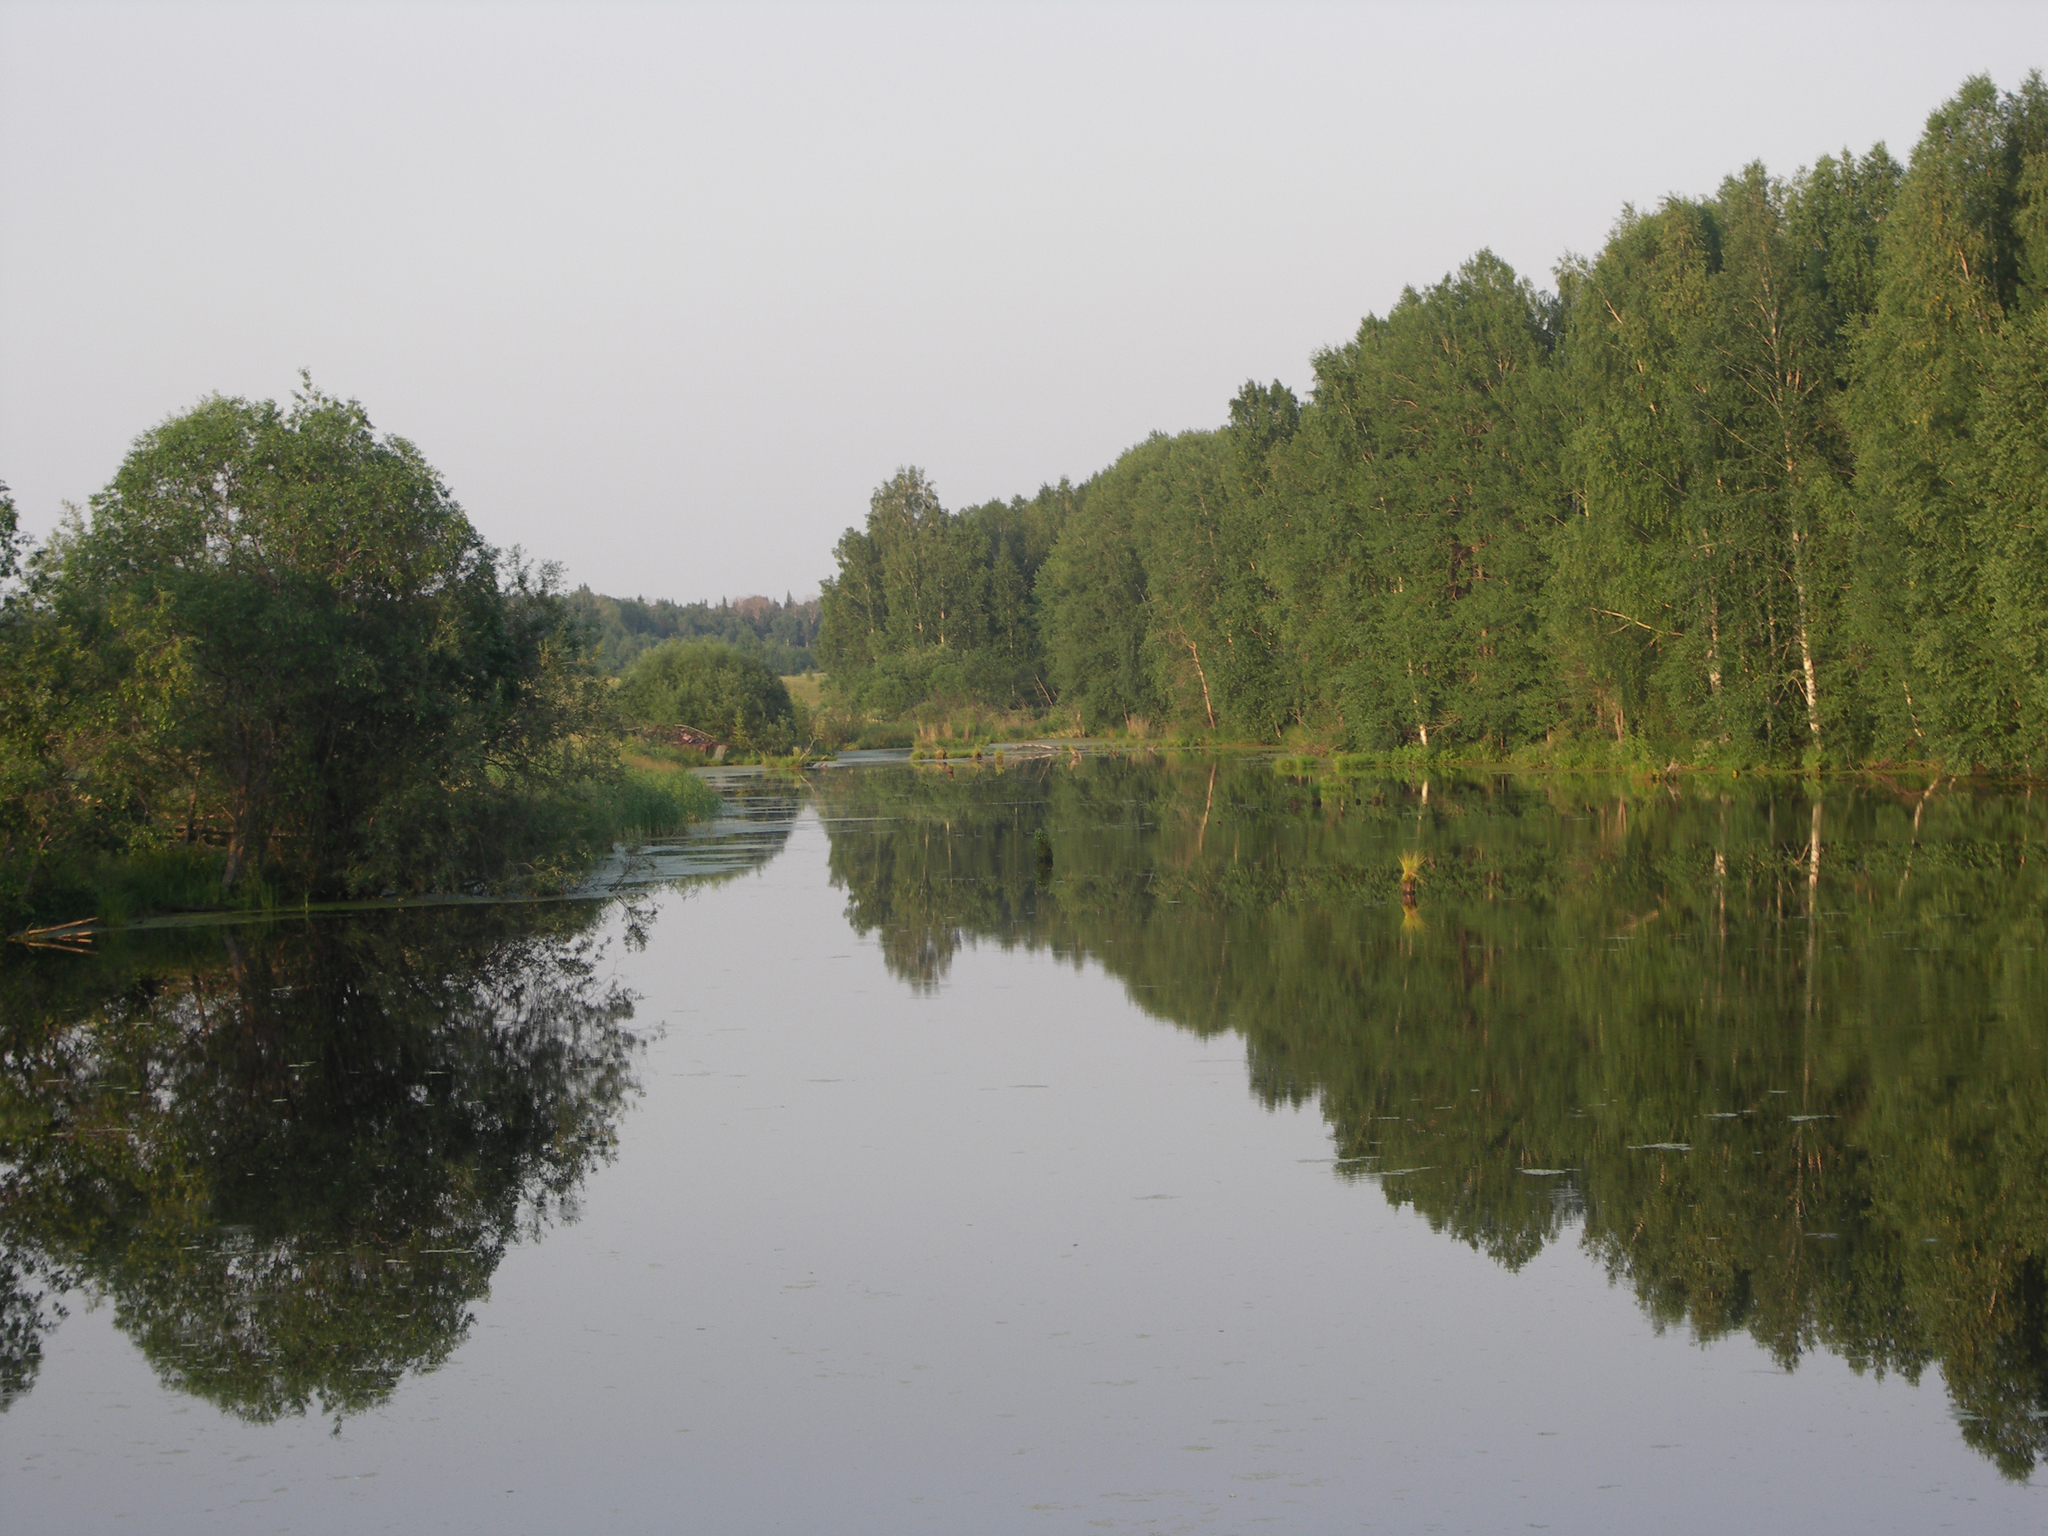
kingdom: Plantae
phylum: Tracheophyta
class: Magnoliopsida
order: Malpighiales
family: Salicaceae
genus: Populus
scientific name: Populus tremula
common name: European aspen
